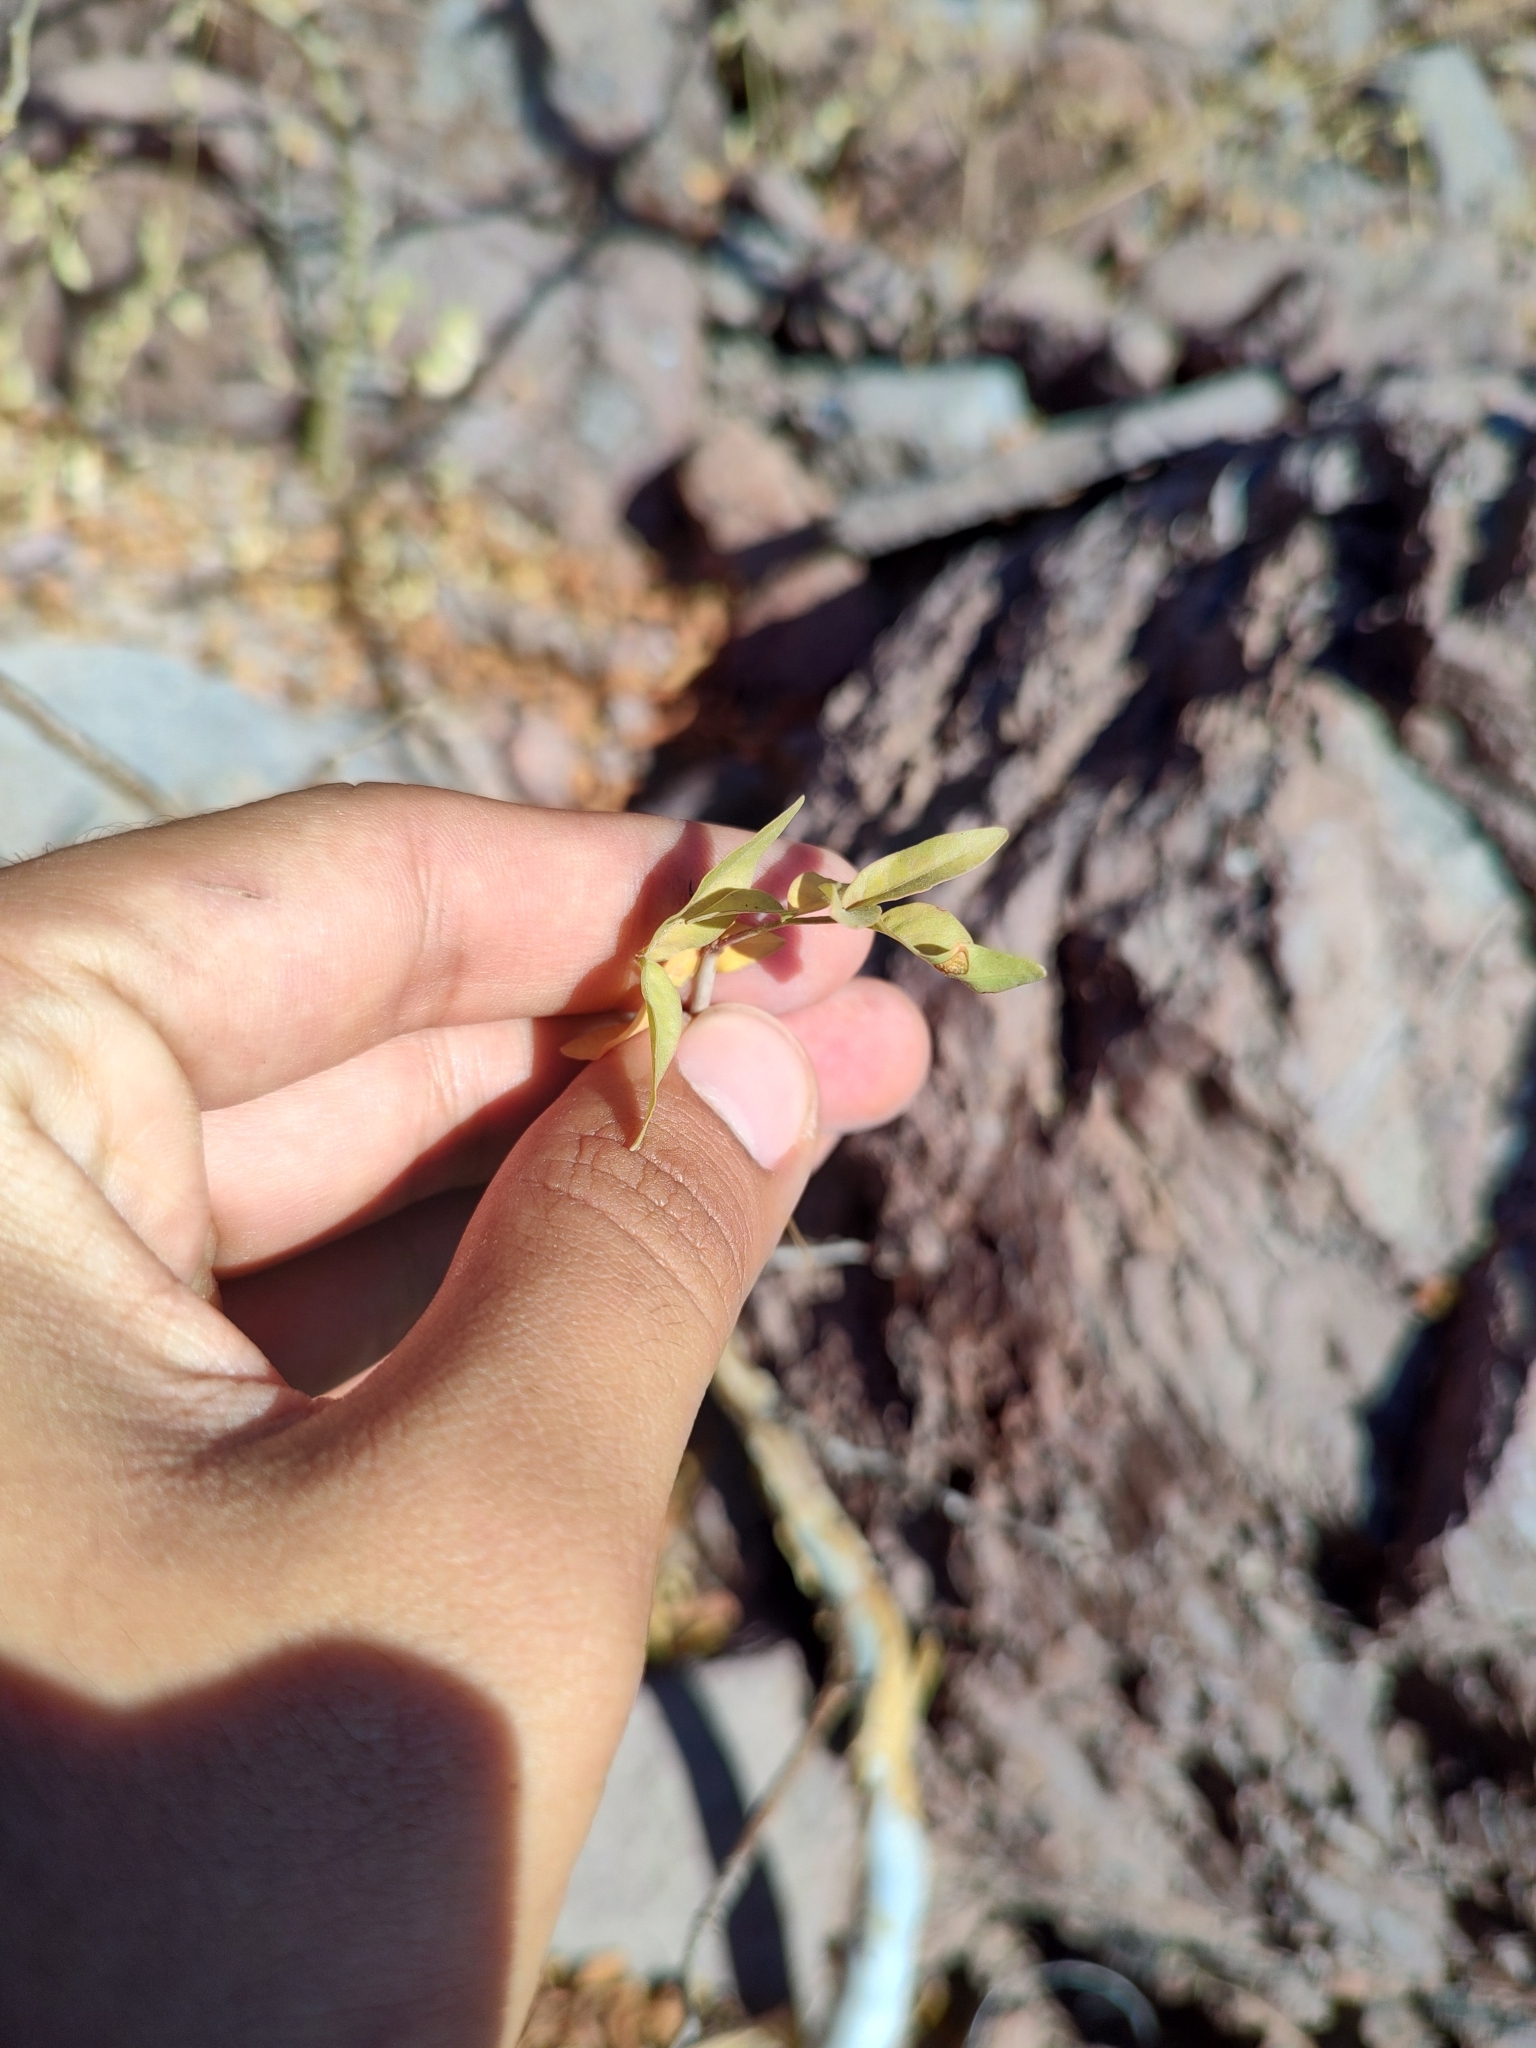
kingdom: Plantae
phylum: Tracheophyta
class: Magnoliopsida
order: Sapindales
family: Burseraceae
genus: Bursera
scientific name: Bursera fagaroides
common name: Elephant tree
